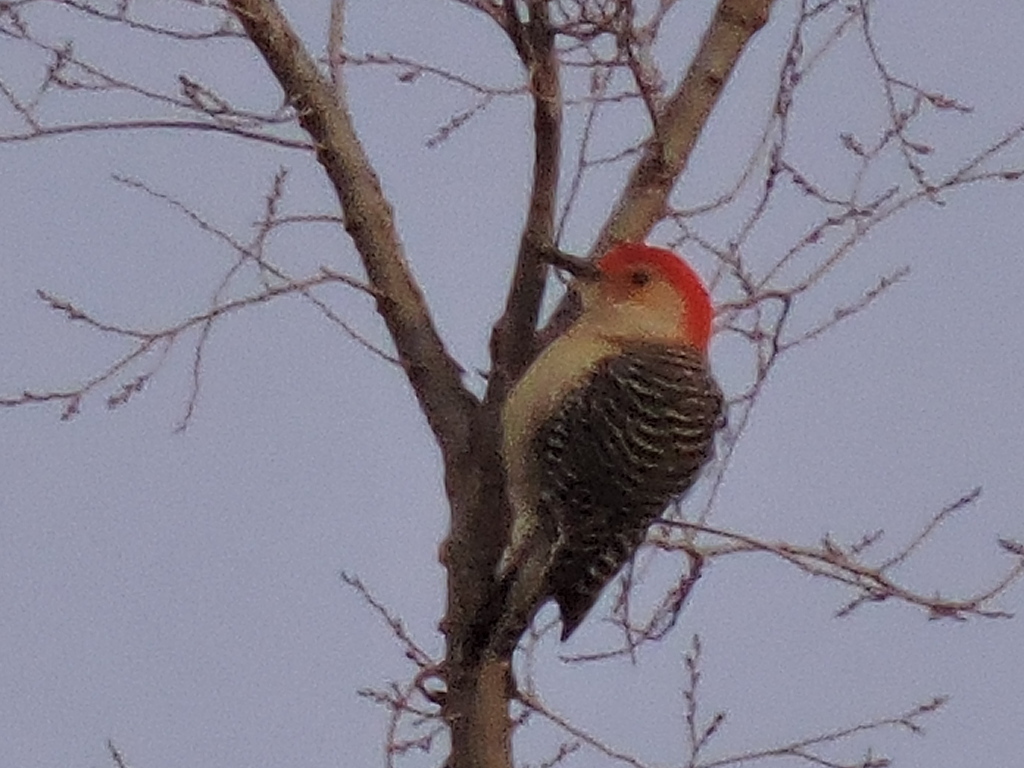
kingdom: Animalia
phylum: Chordata
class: Aves
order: Piciformes
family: Picidae
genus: Melanerpes
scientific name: Melanerpes carolinus
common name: Red-bellied woodpecker
